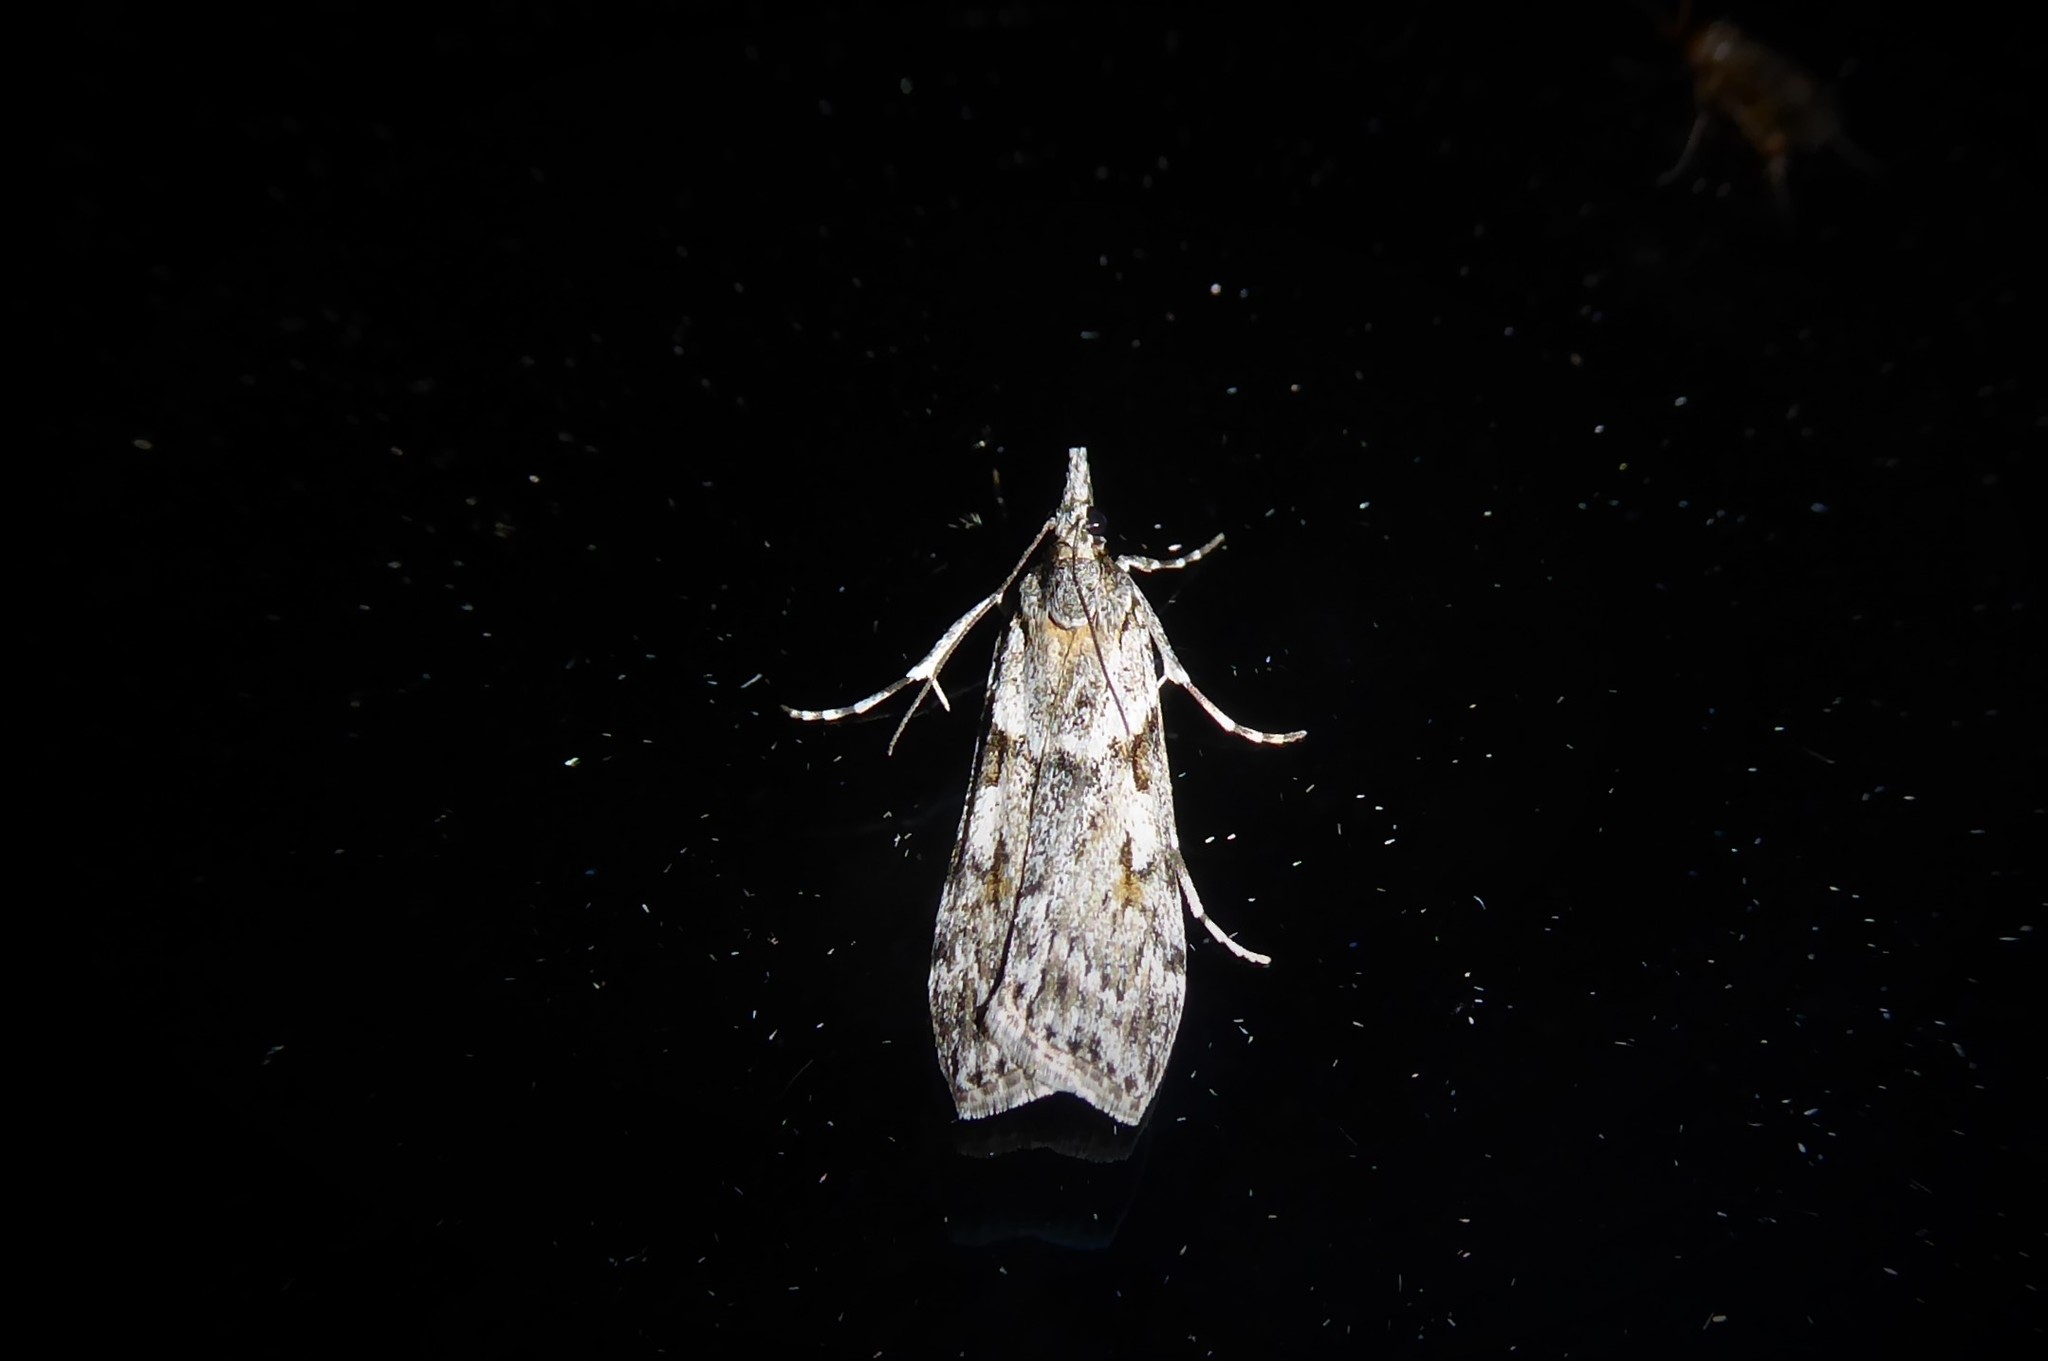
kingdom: Animalia
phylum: Arthropoda
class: Insecta
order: Lepidoptera
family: Crambidae
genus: Scoparia
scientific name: Scoparia halopis
